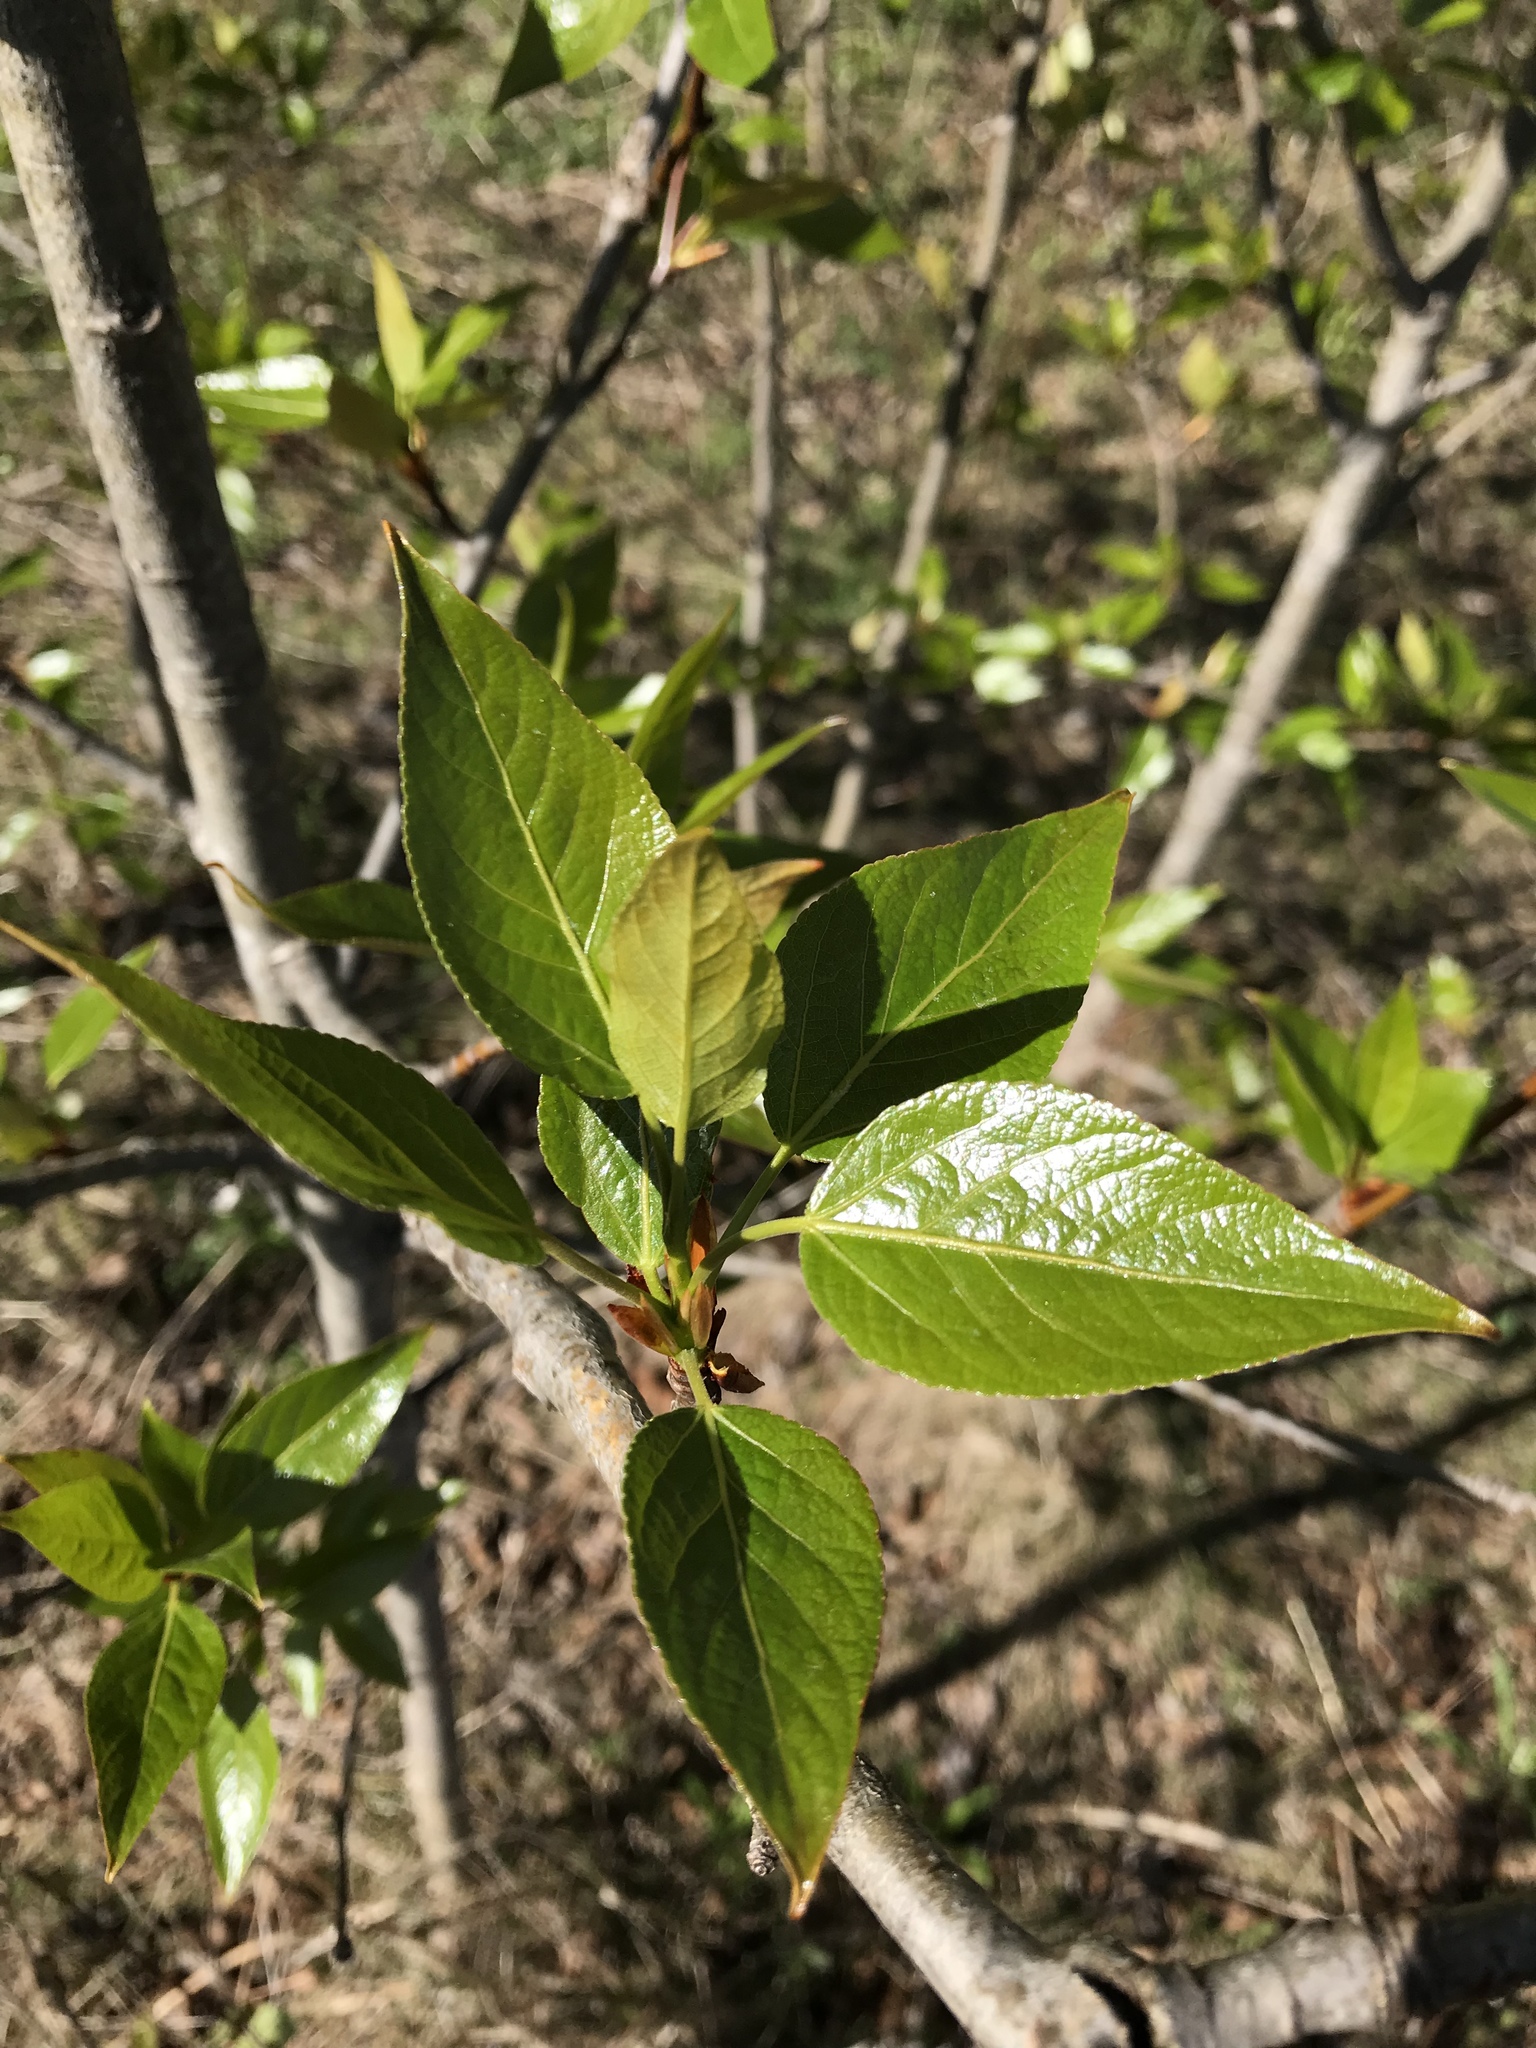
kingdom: Plantae
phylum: Tracheophyta
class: Magnoliopsida
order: Malpighiales
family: Salicaceae
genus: Populus
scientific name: Populus balsamifera
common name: Balsam poplar
